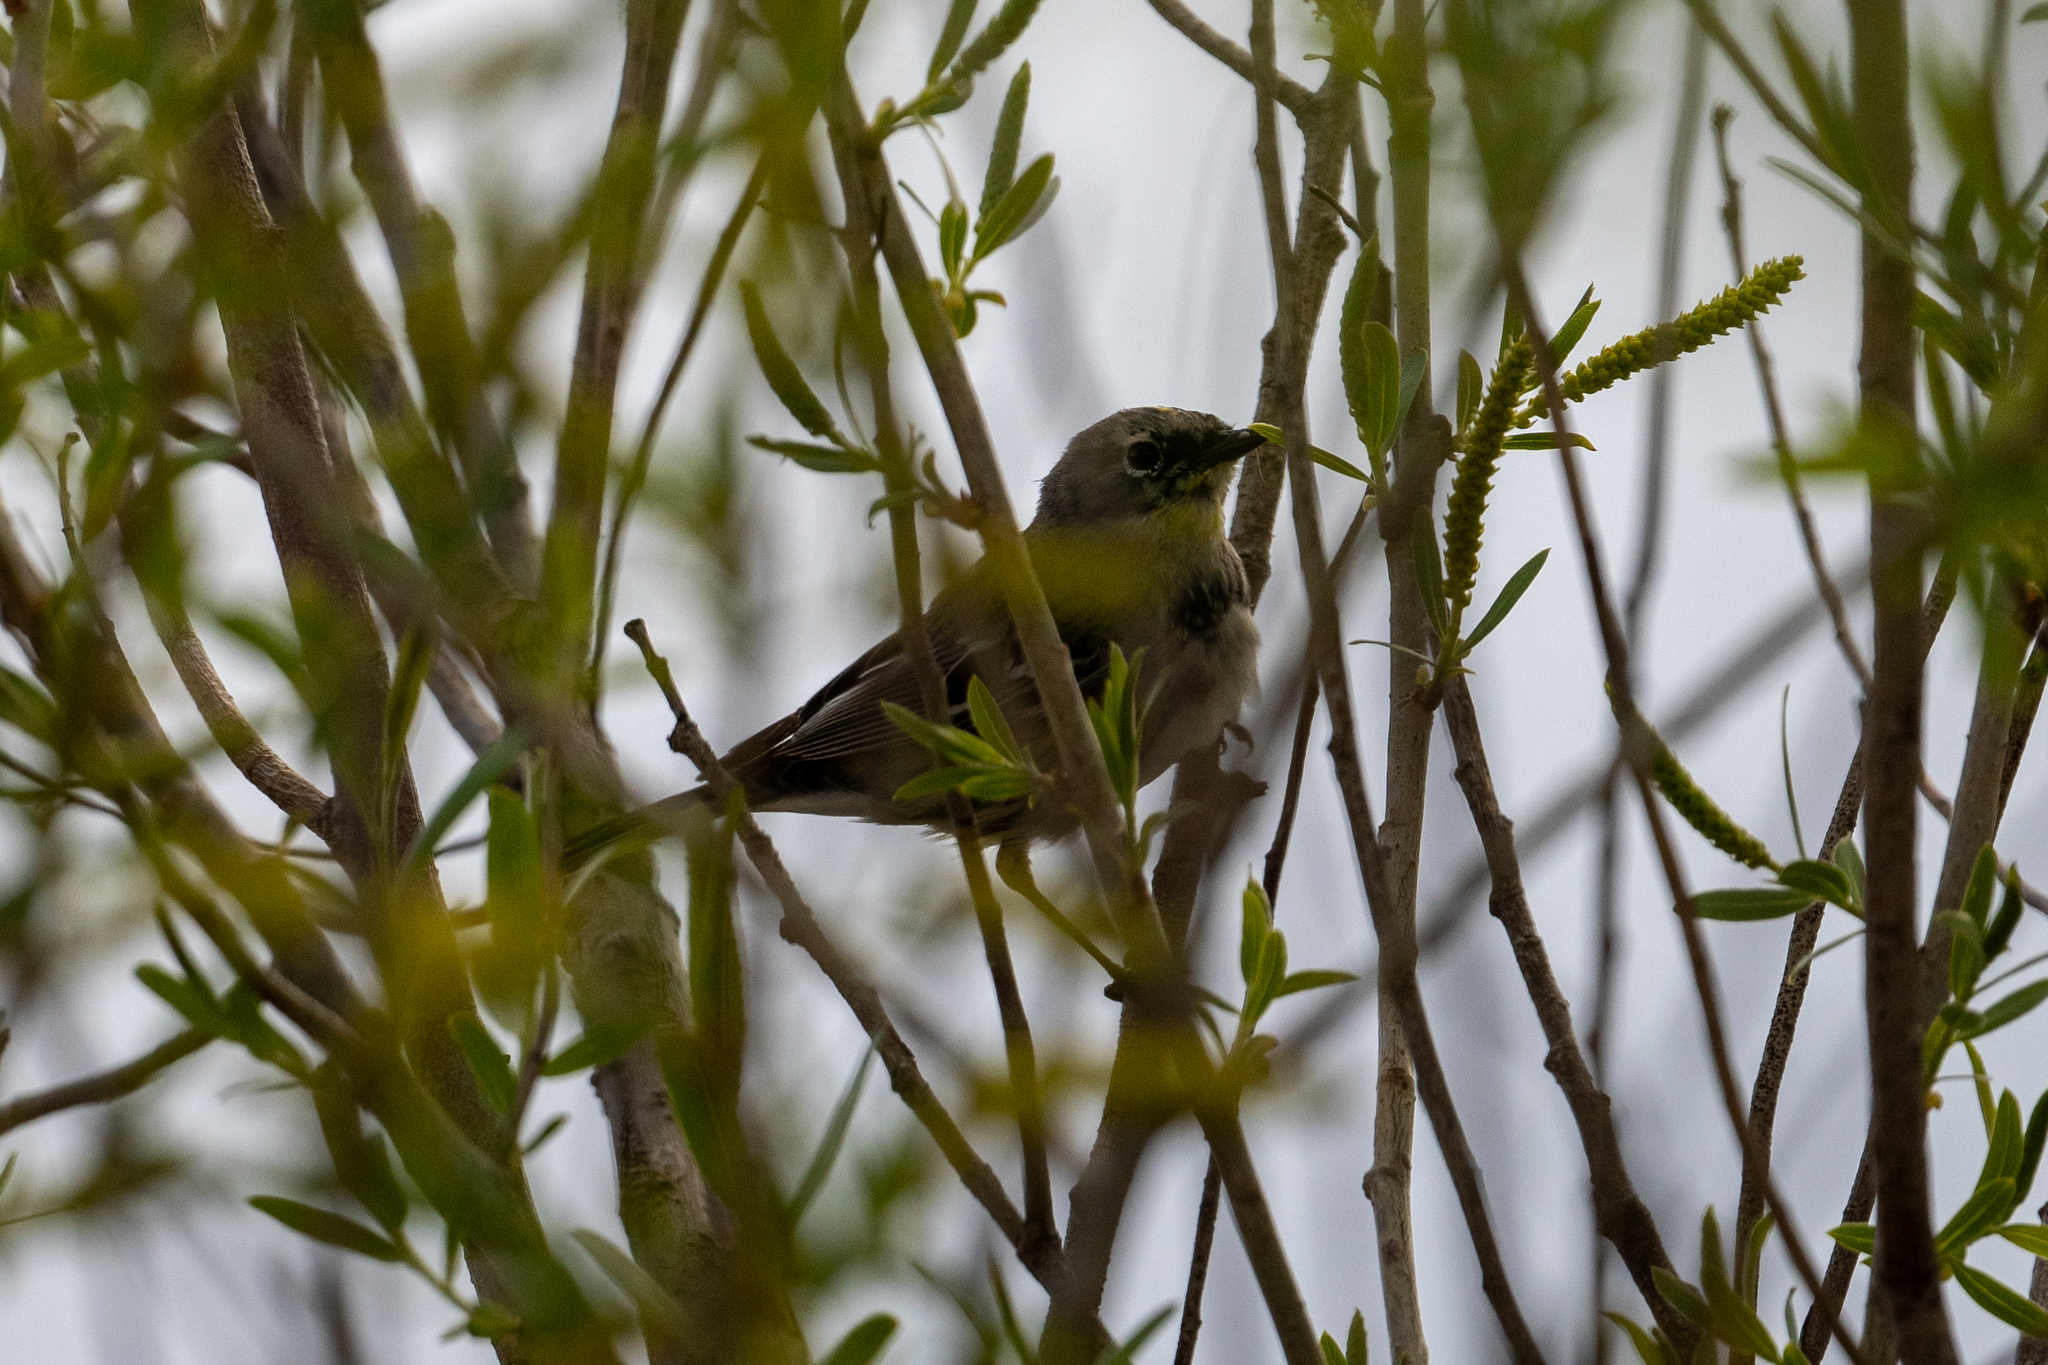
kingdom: Animalia
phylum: Chordata
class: Aves
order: Passeriformes
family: Parulidae
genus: Setophaga
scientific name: Setophaga coronata
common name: Myrtle warbler
